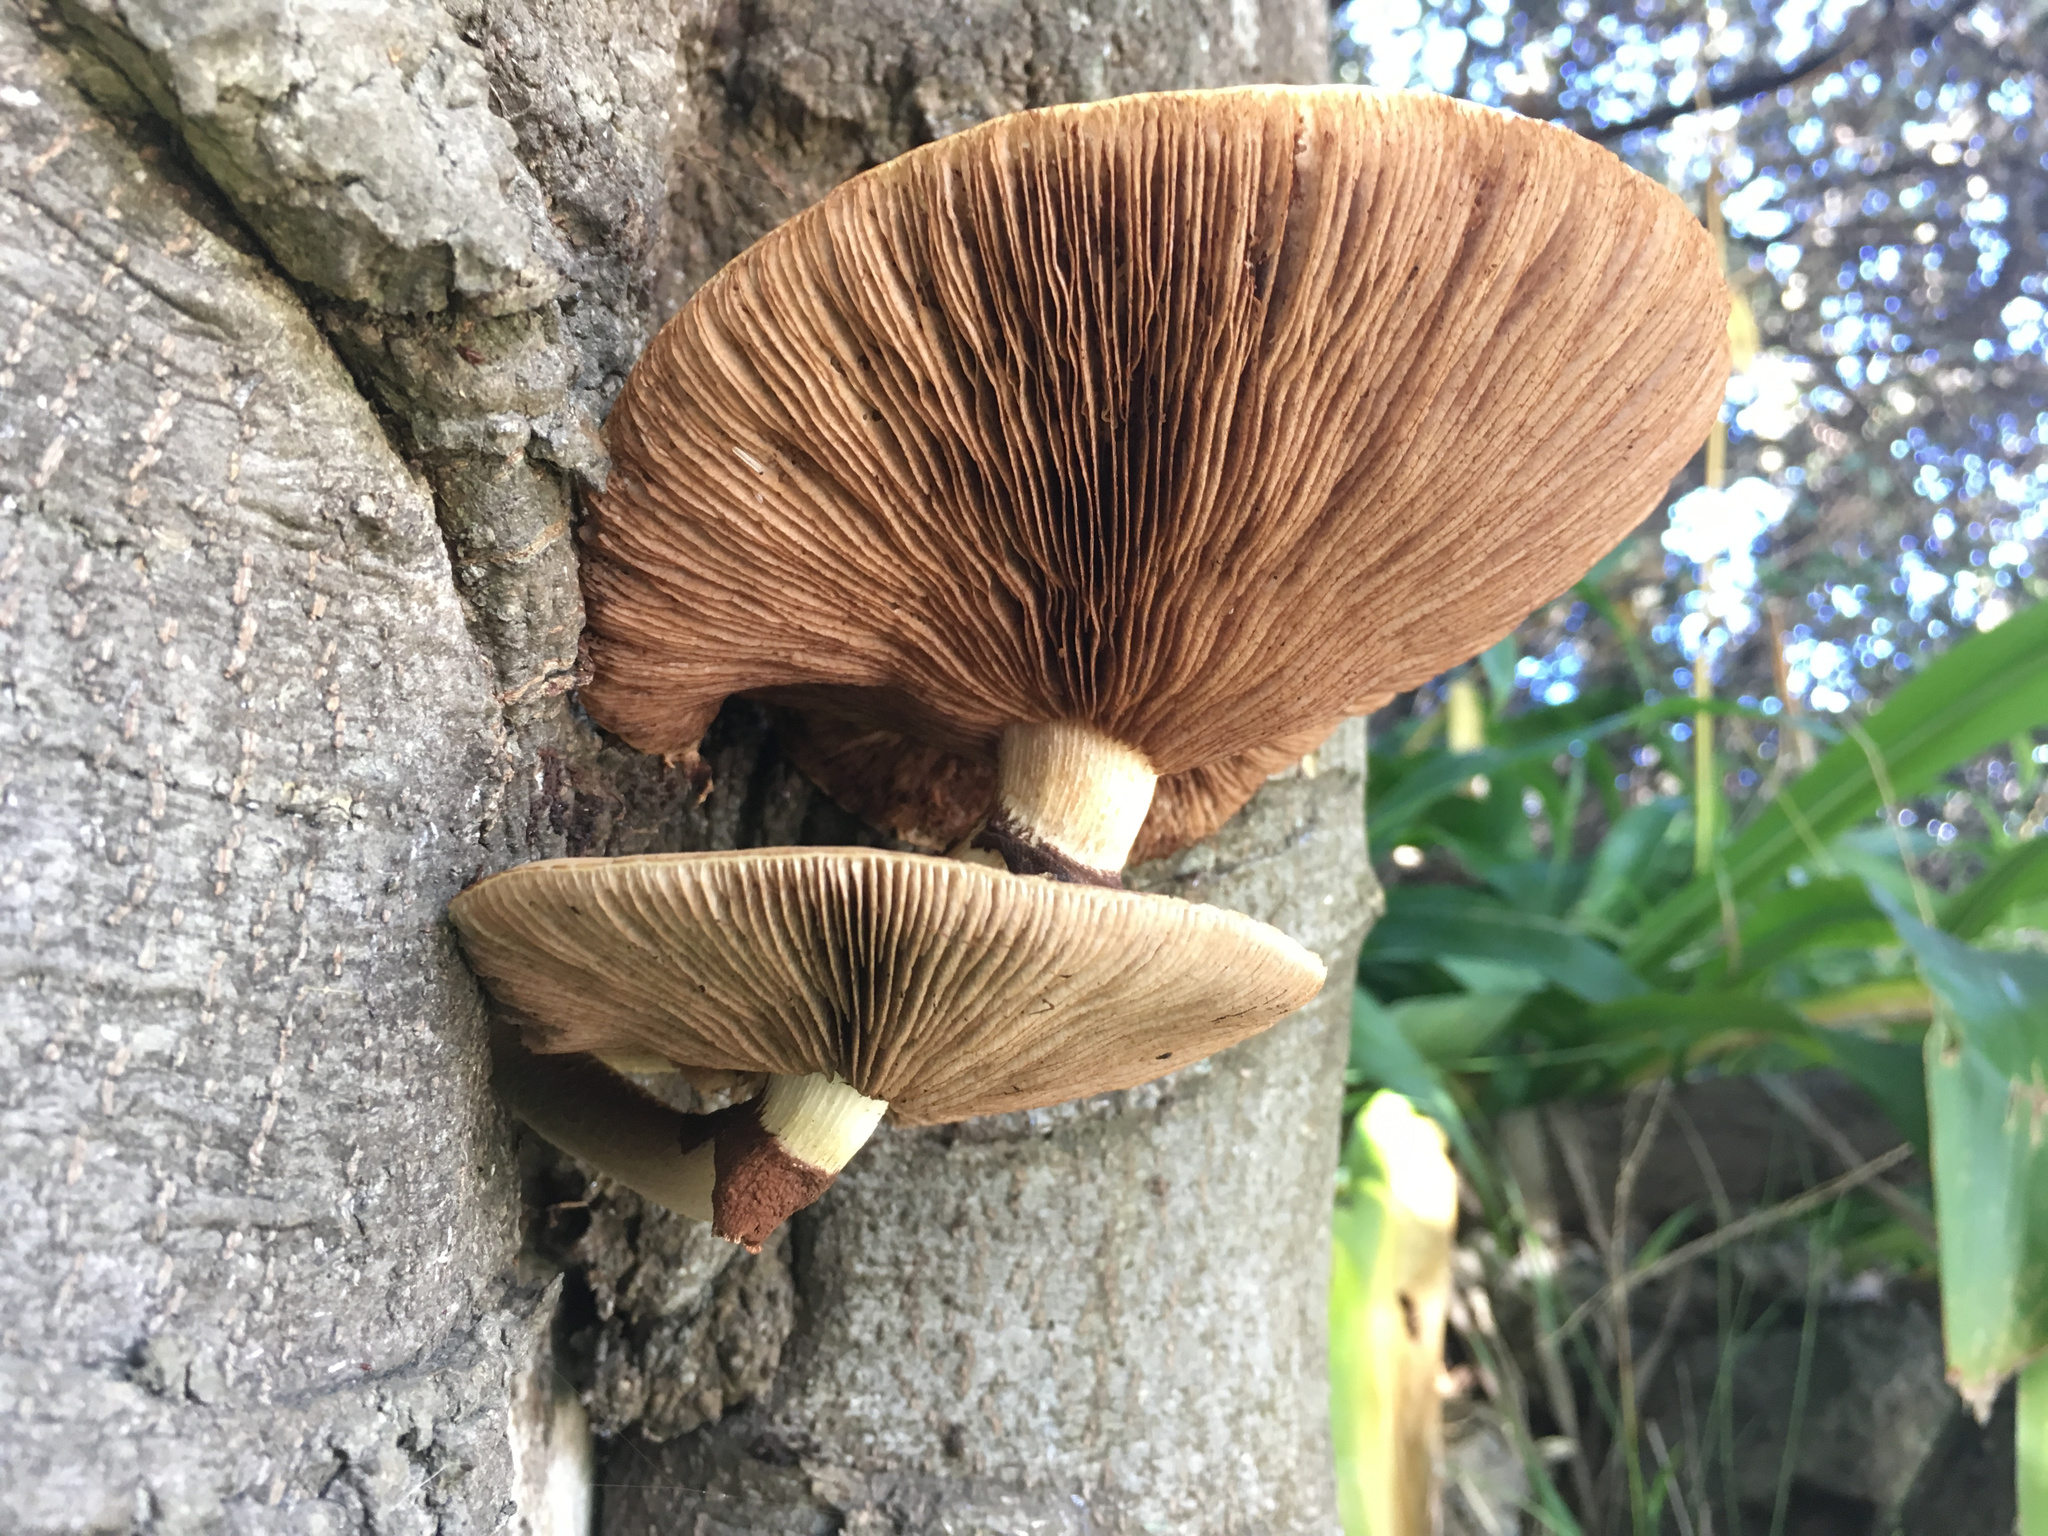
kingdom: Fungi
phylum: Basidiomycota
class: Agaricomycetes
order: Agaricales
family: Tubariaceae
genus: Cyclocybe
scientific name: Cyclocybe parasitica
